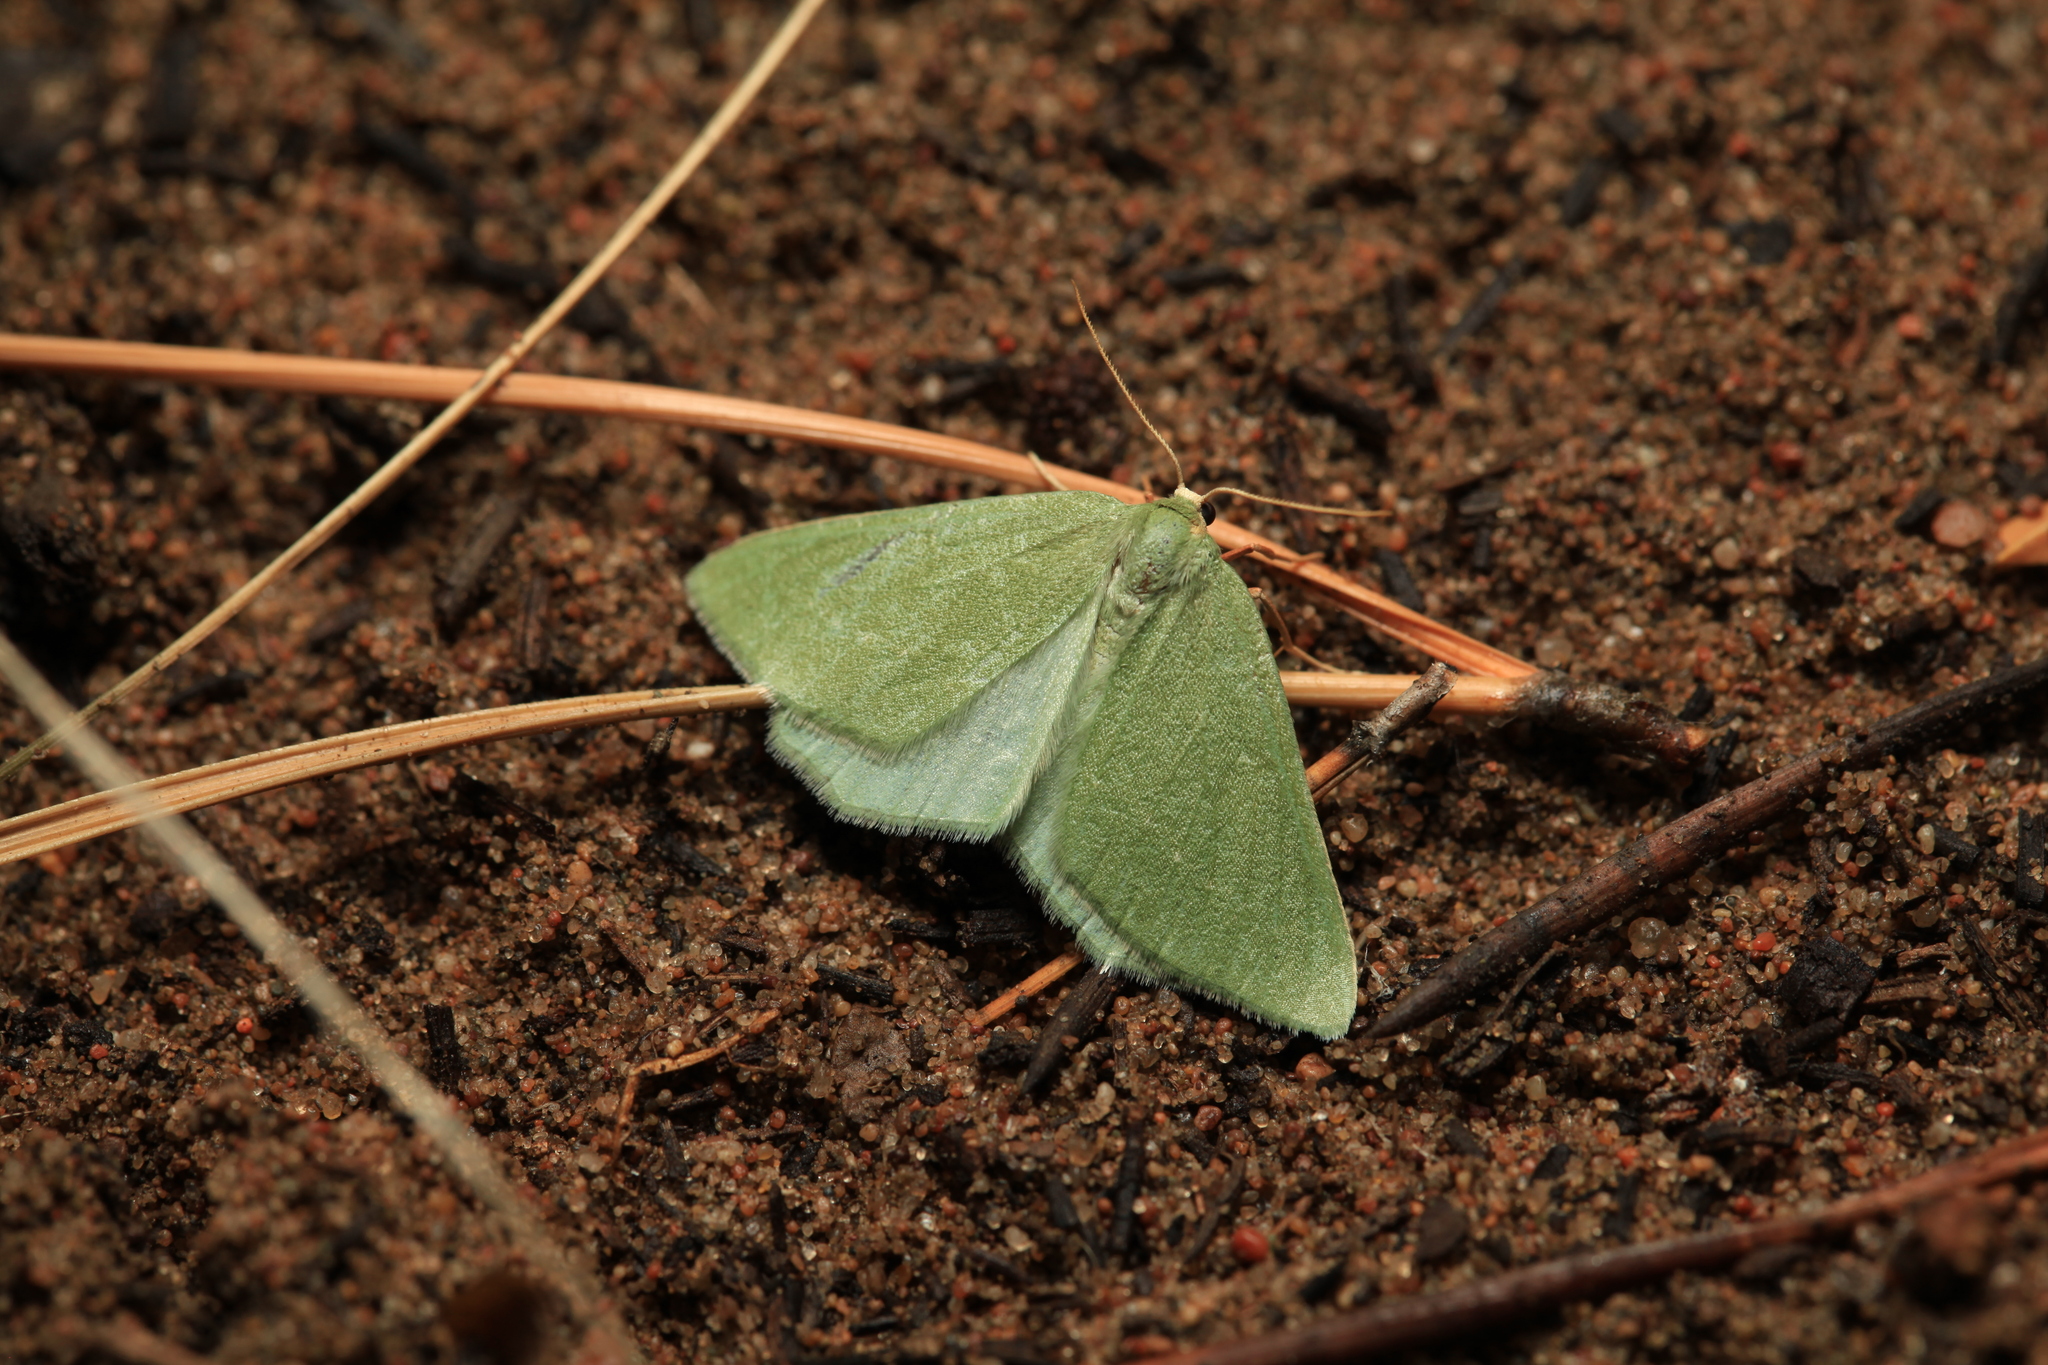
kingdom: Animalia
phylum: Arthropoda
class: Insecta
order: Lepidoptera
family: Geometridae
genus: Dyschloropsis
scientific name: Dyschloropsis impararia
